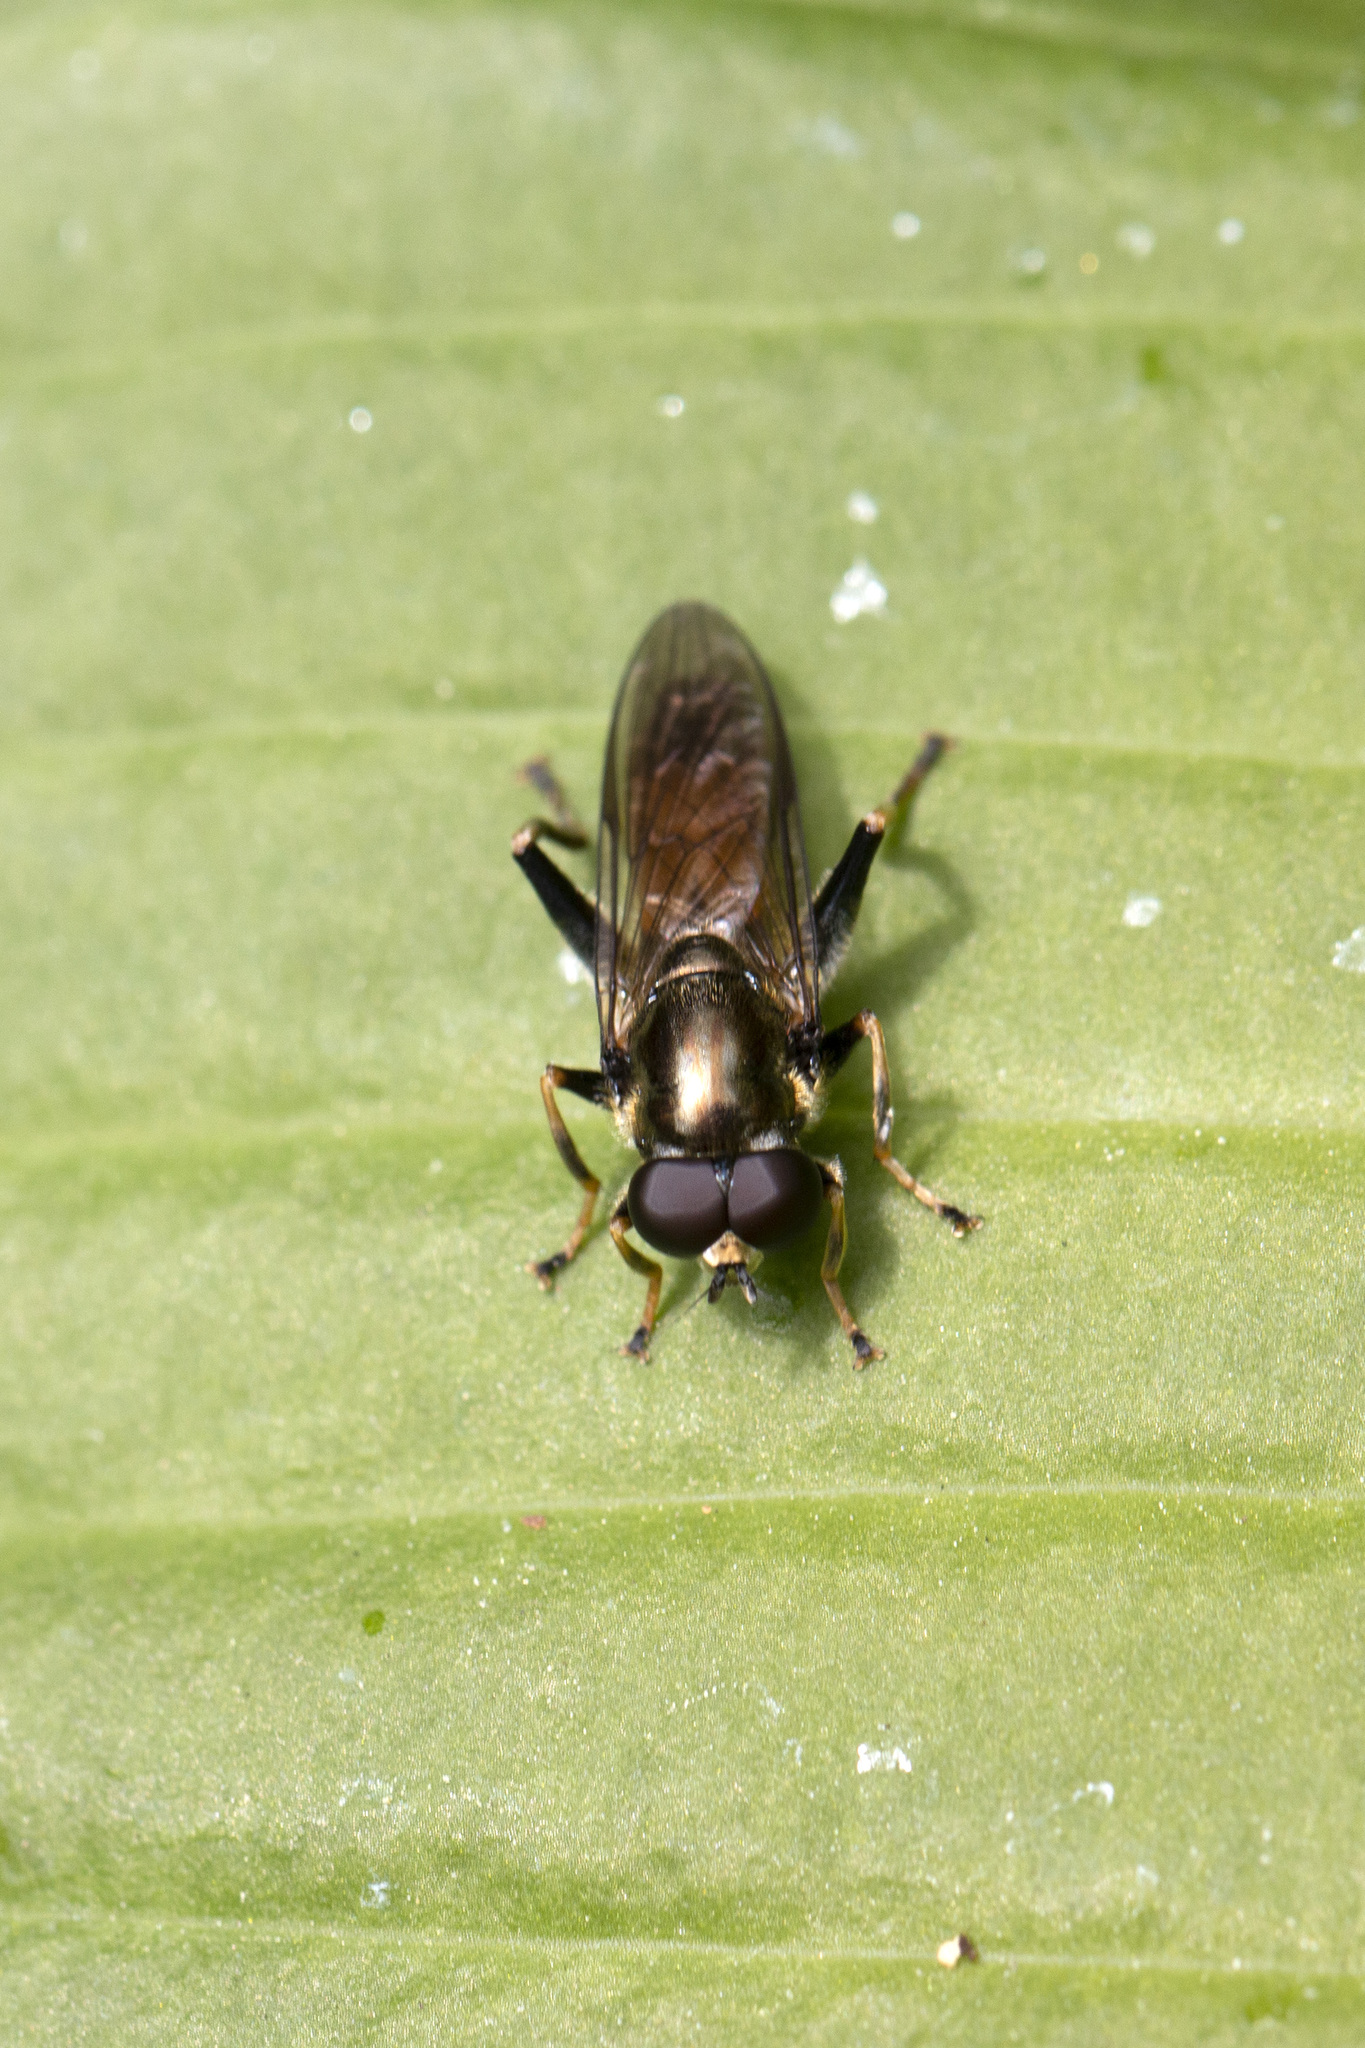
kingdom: Animalia
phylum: Arthropoda
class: Insecta
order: Diptera
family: Syrphidae
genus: Xylota
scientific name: Xylota segnis
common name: Brown-toed forest fly
